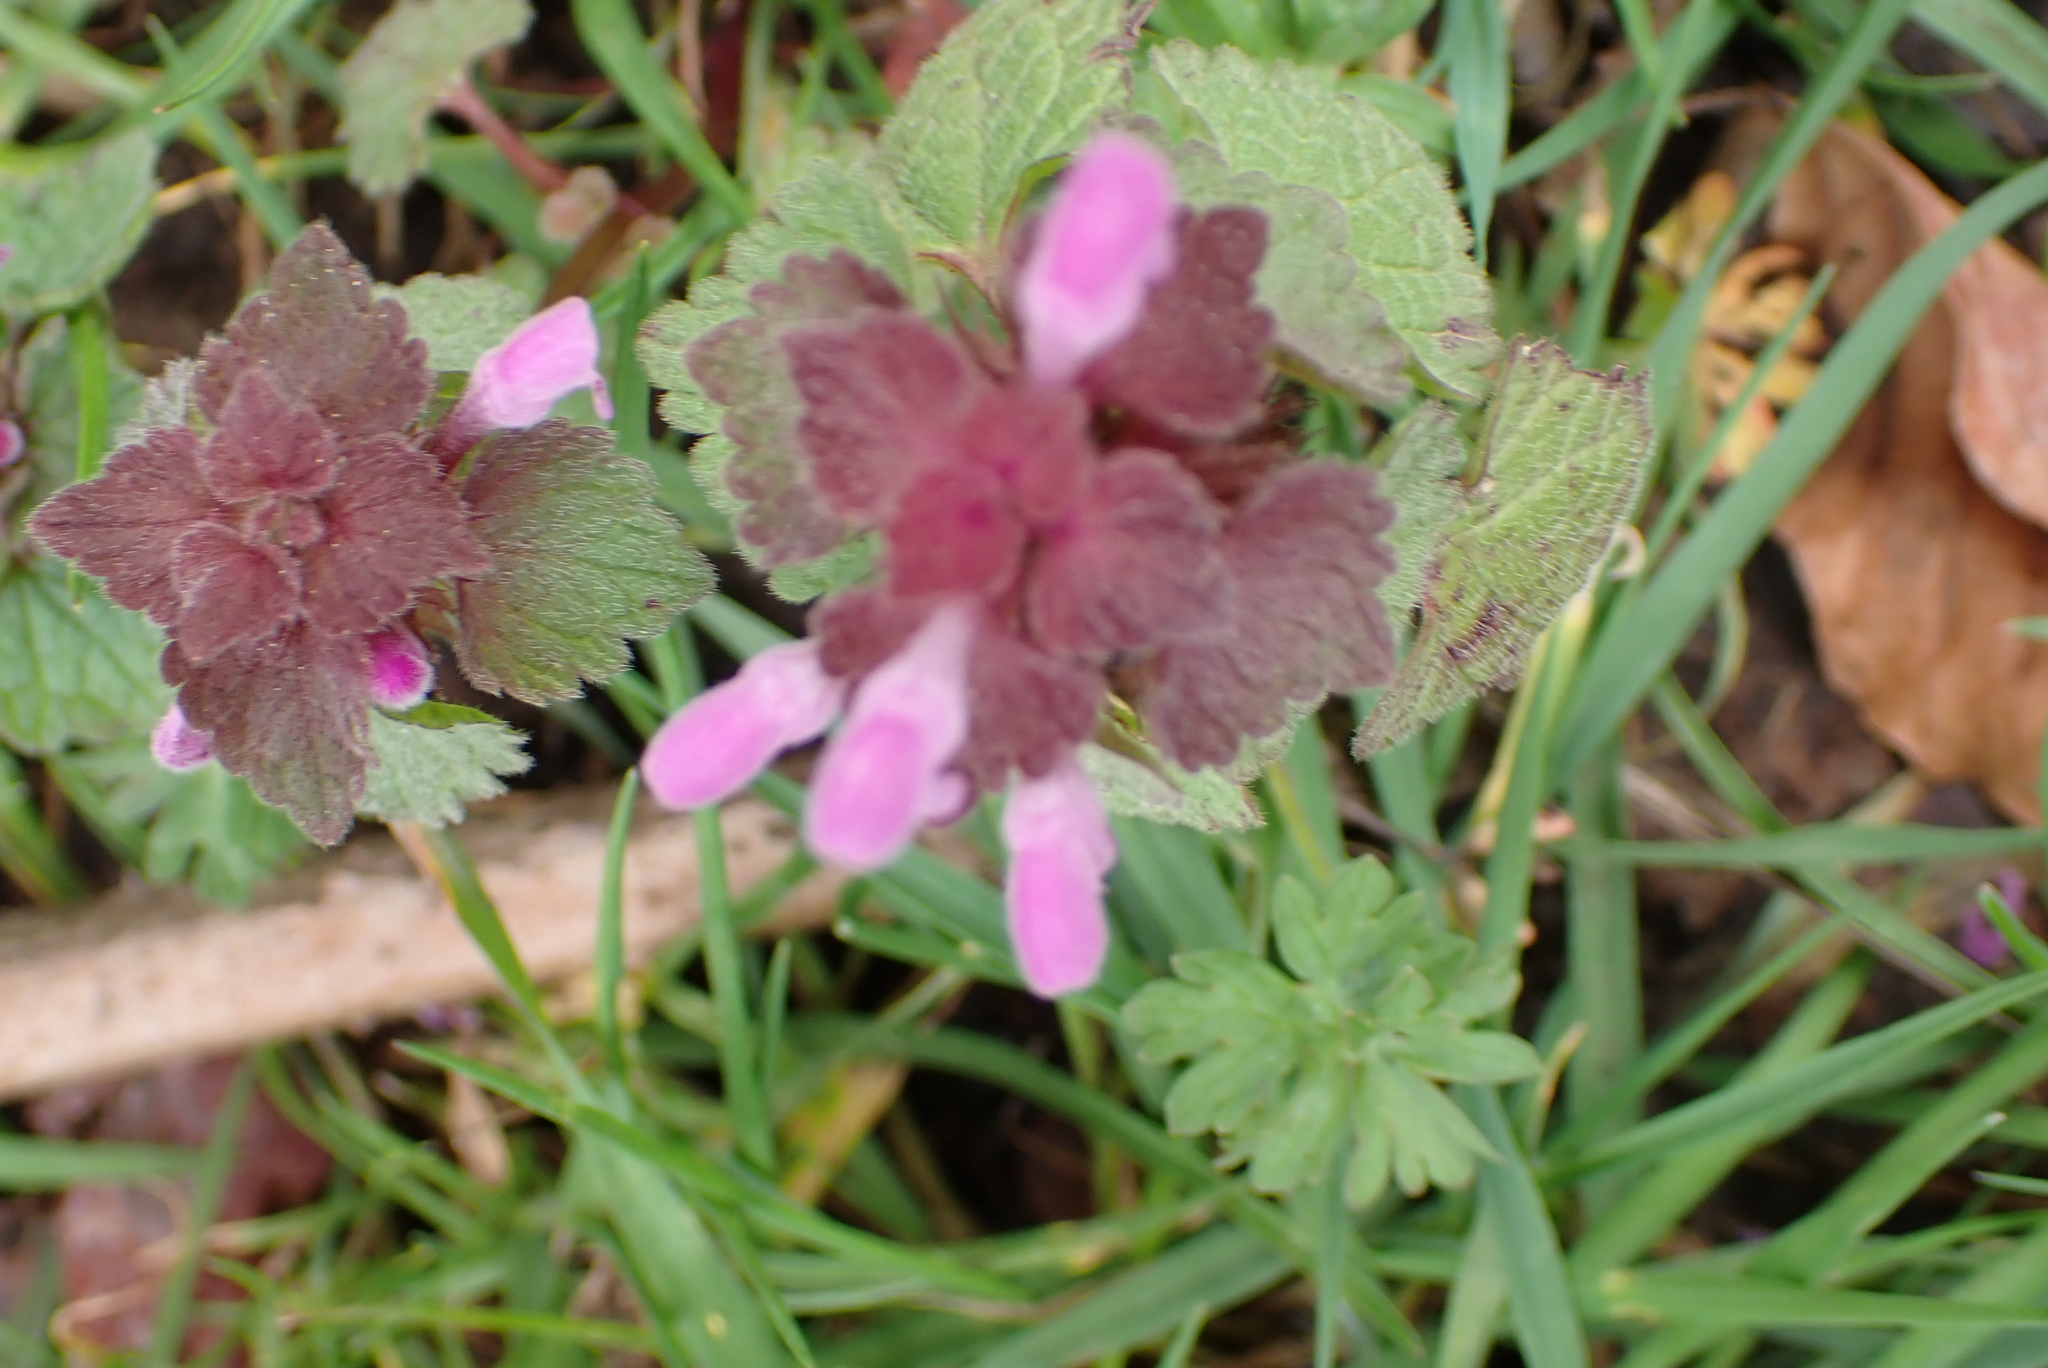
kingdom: Plantae
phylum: Tracheophyta
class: Magnoliopsida
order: Lamiales
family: Lamiaceae
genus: Lamium
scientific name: Lamium purpureum
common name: Red dead-nettle
